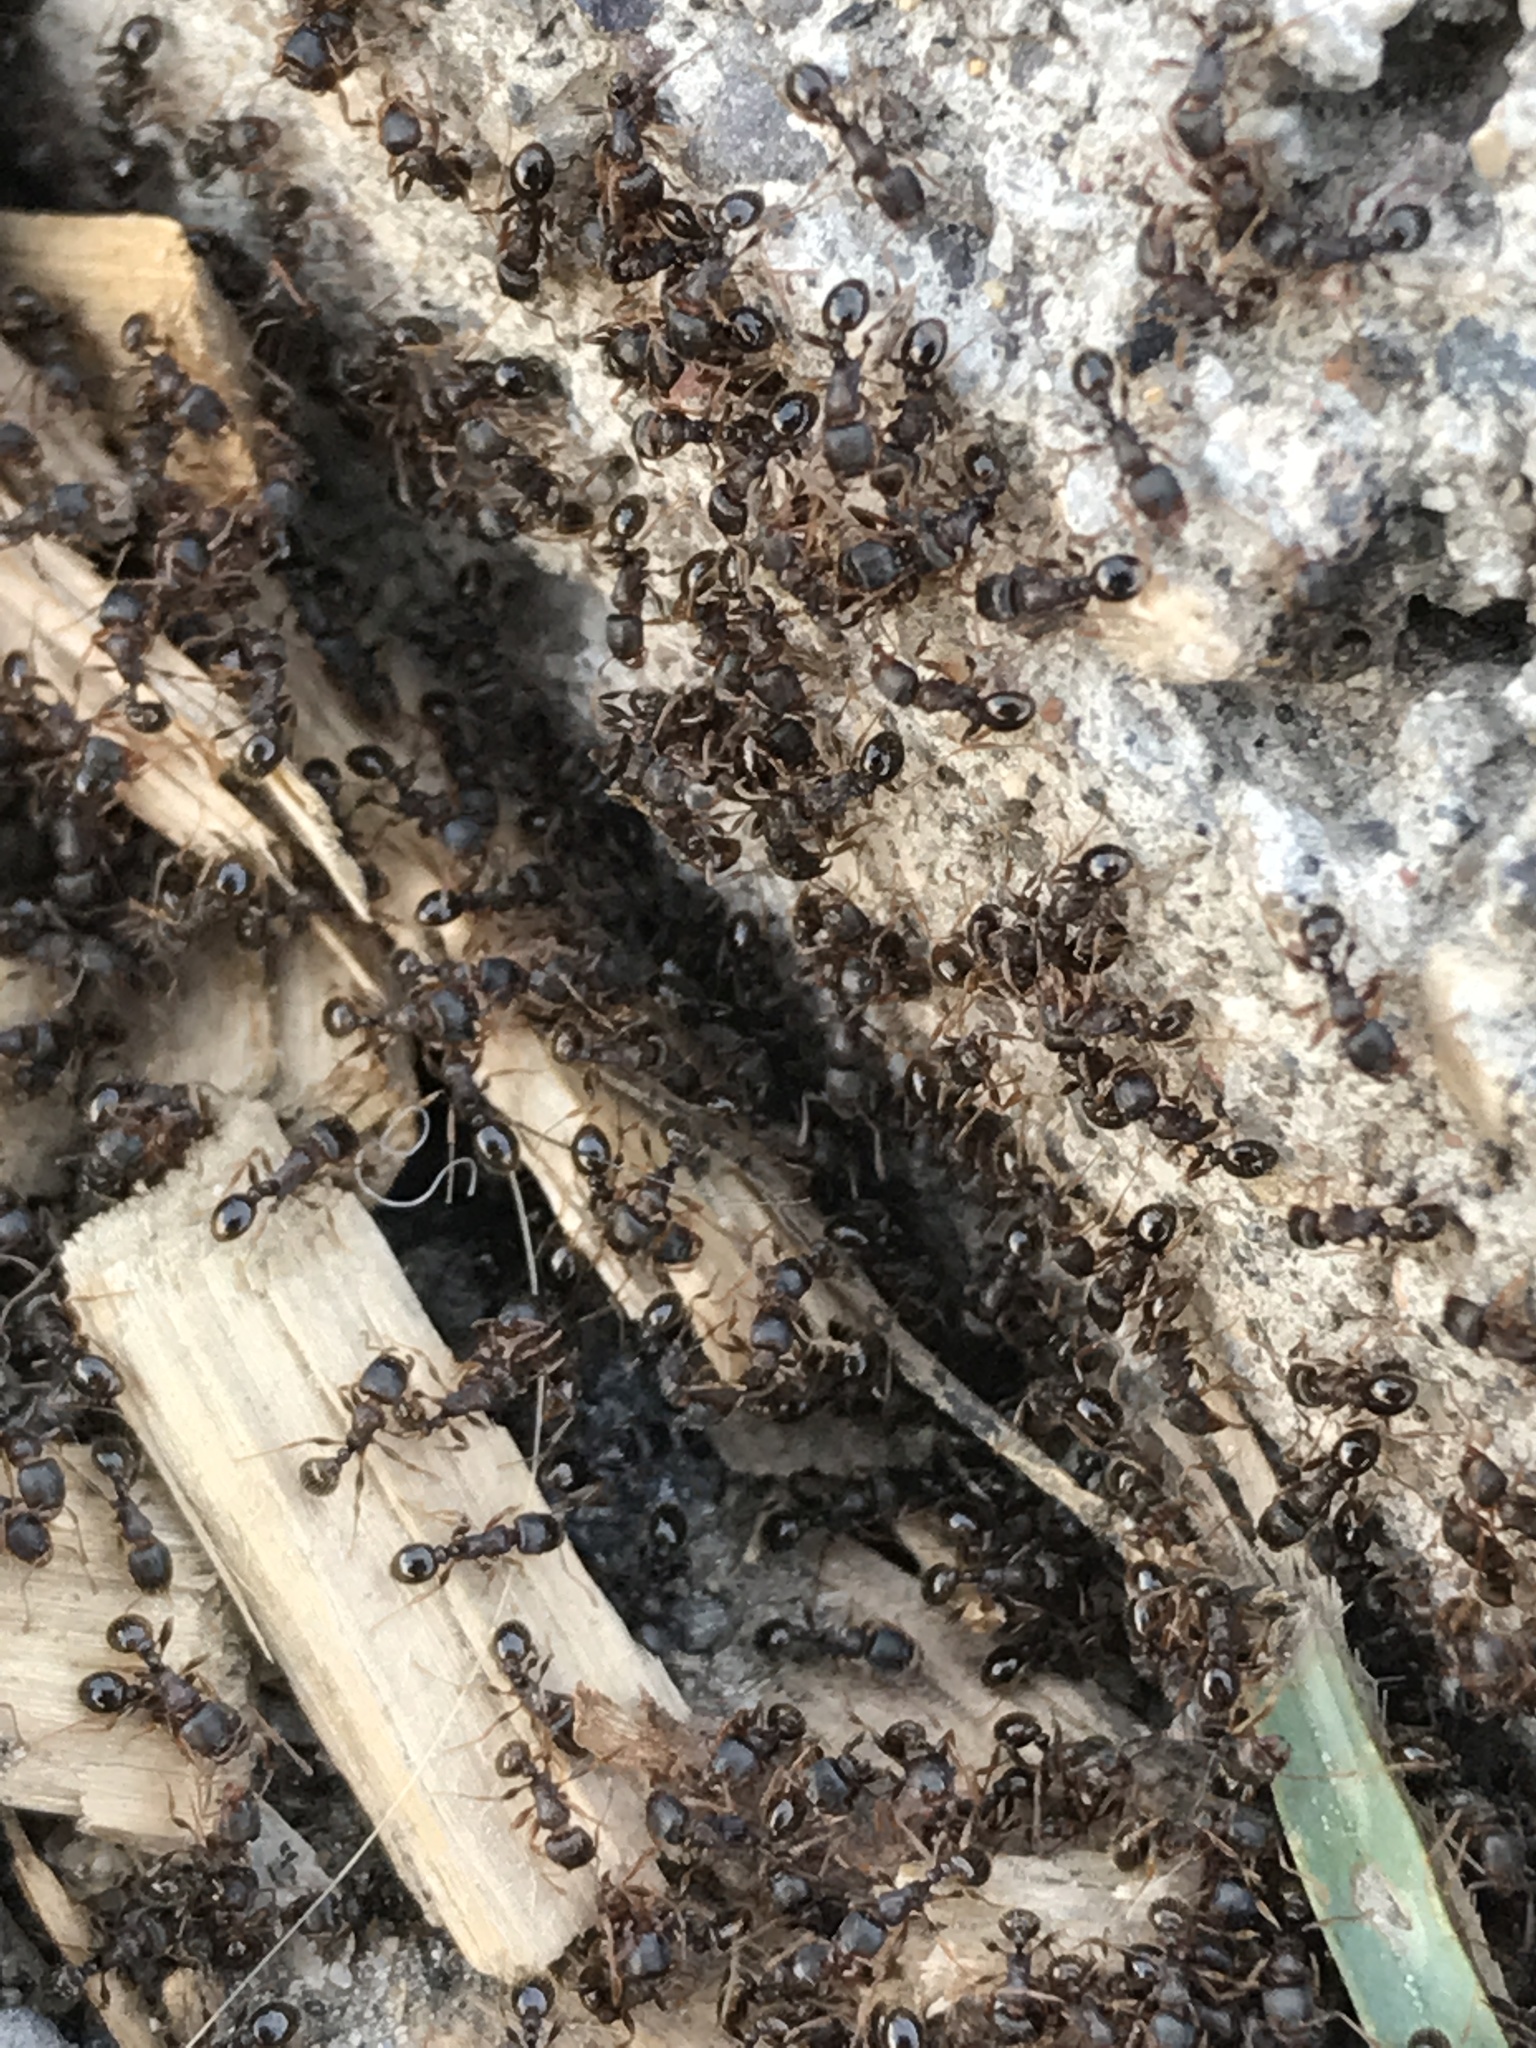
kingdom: Animalia
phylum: Arthropoda
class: Insecta
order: Hymenoptera
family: Formicidae
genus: Tetramorium
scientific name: Tetramorium immigrans
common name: Pavement ant
